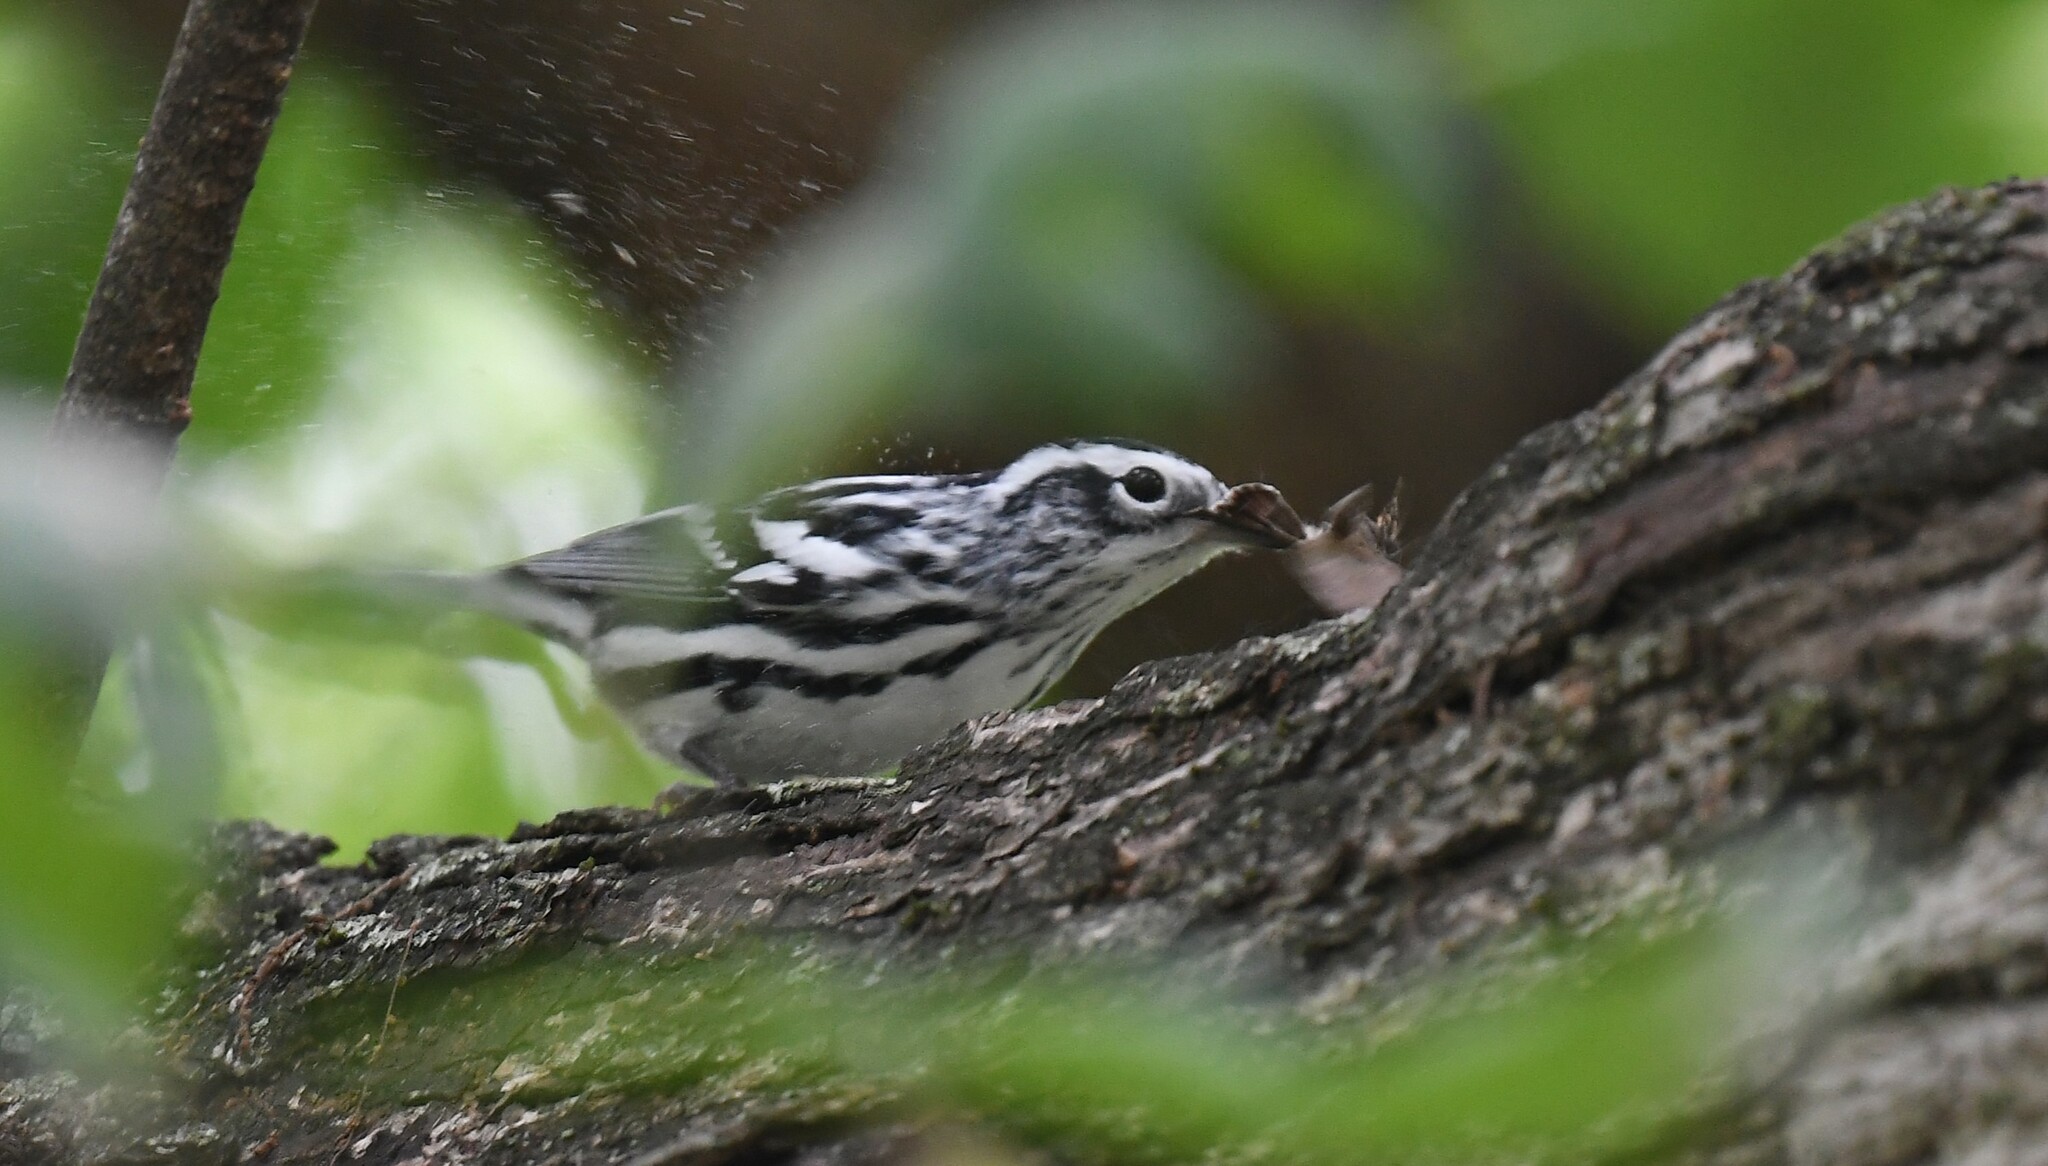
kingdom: Animalia
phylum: Chordata
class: Aves
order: Passeriformes
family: Parulidae
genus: Mniotilta
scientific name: Mniotilta varia
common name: Black-and-white warbler
